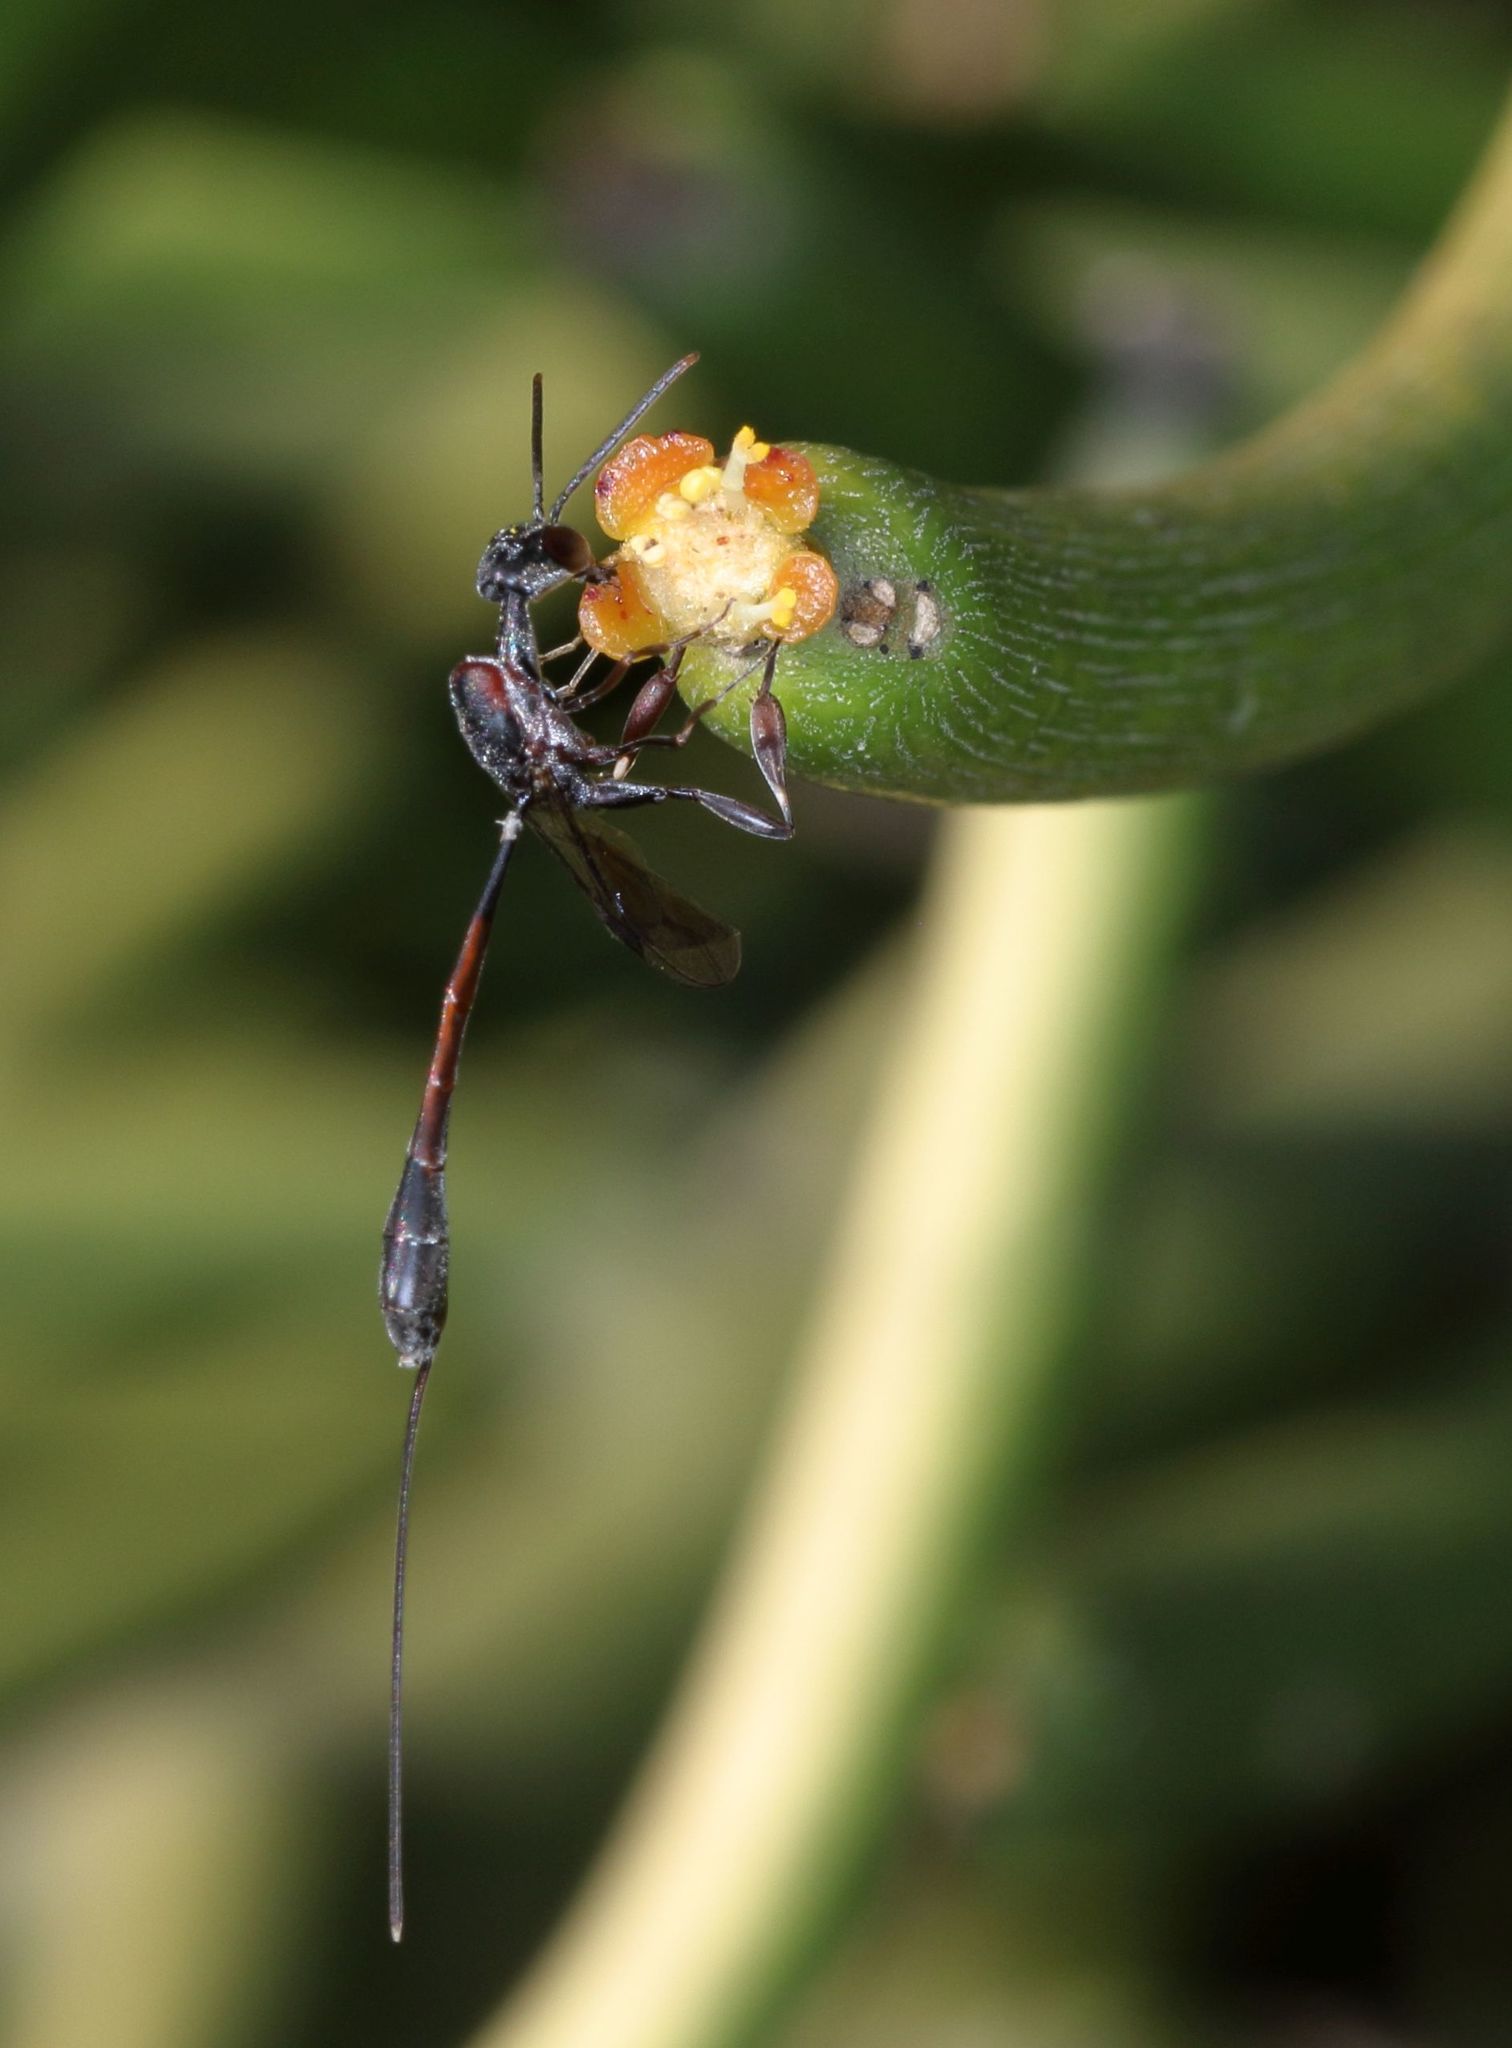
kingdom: Plantae
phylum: Tracheophyta
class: Magnoliopsida
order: Malpighiales
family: Euphorbiaceae
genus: Euphorbia
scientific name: Euphorbia tirucalli
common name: Indiantree spurge
